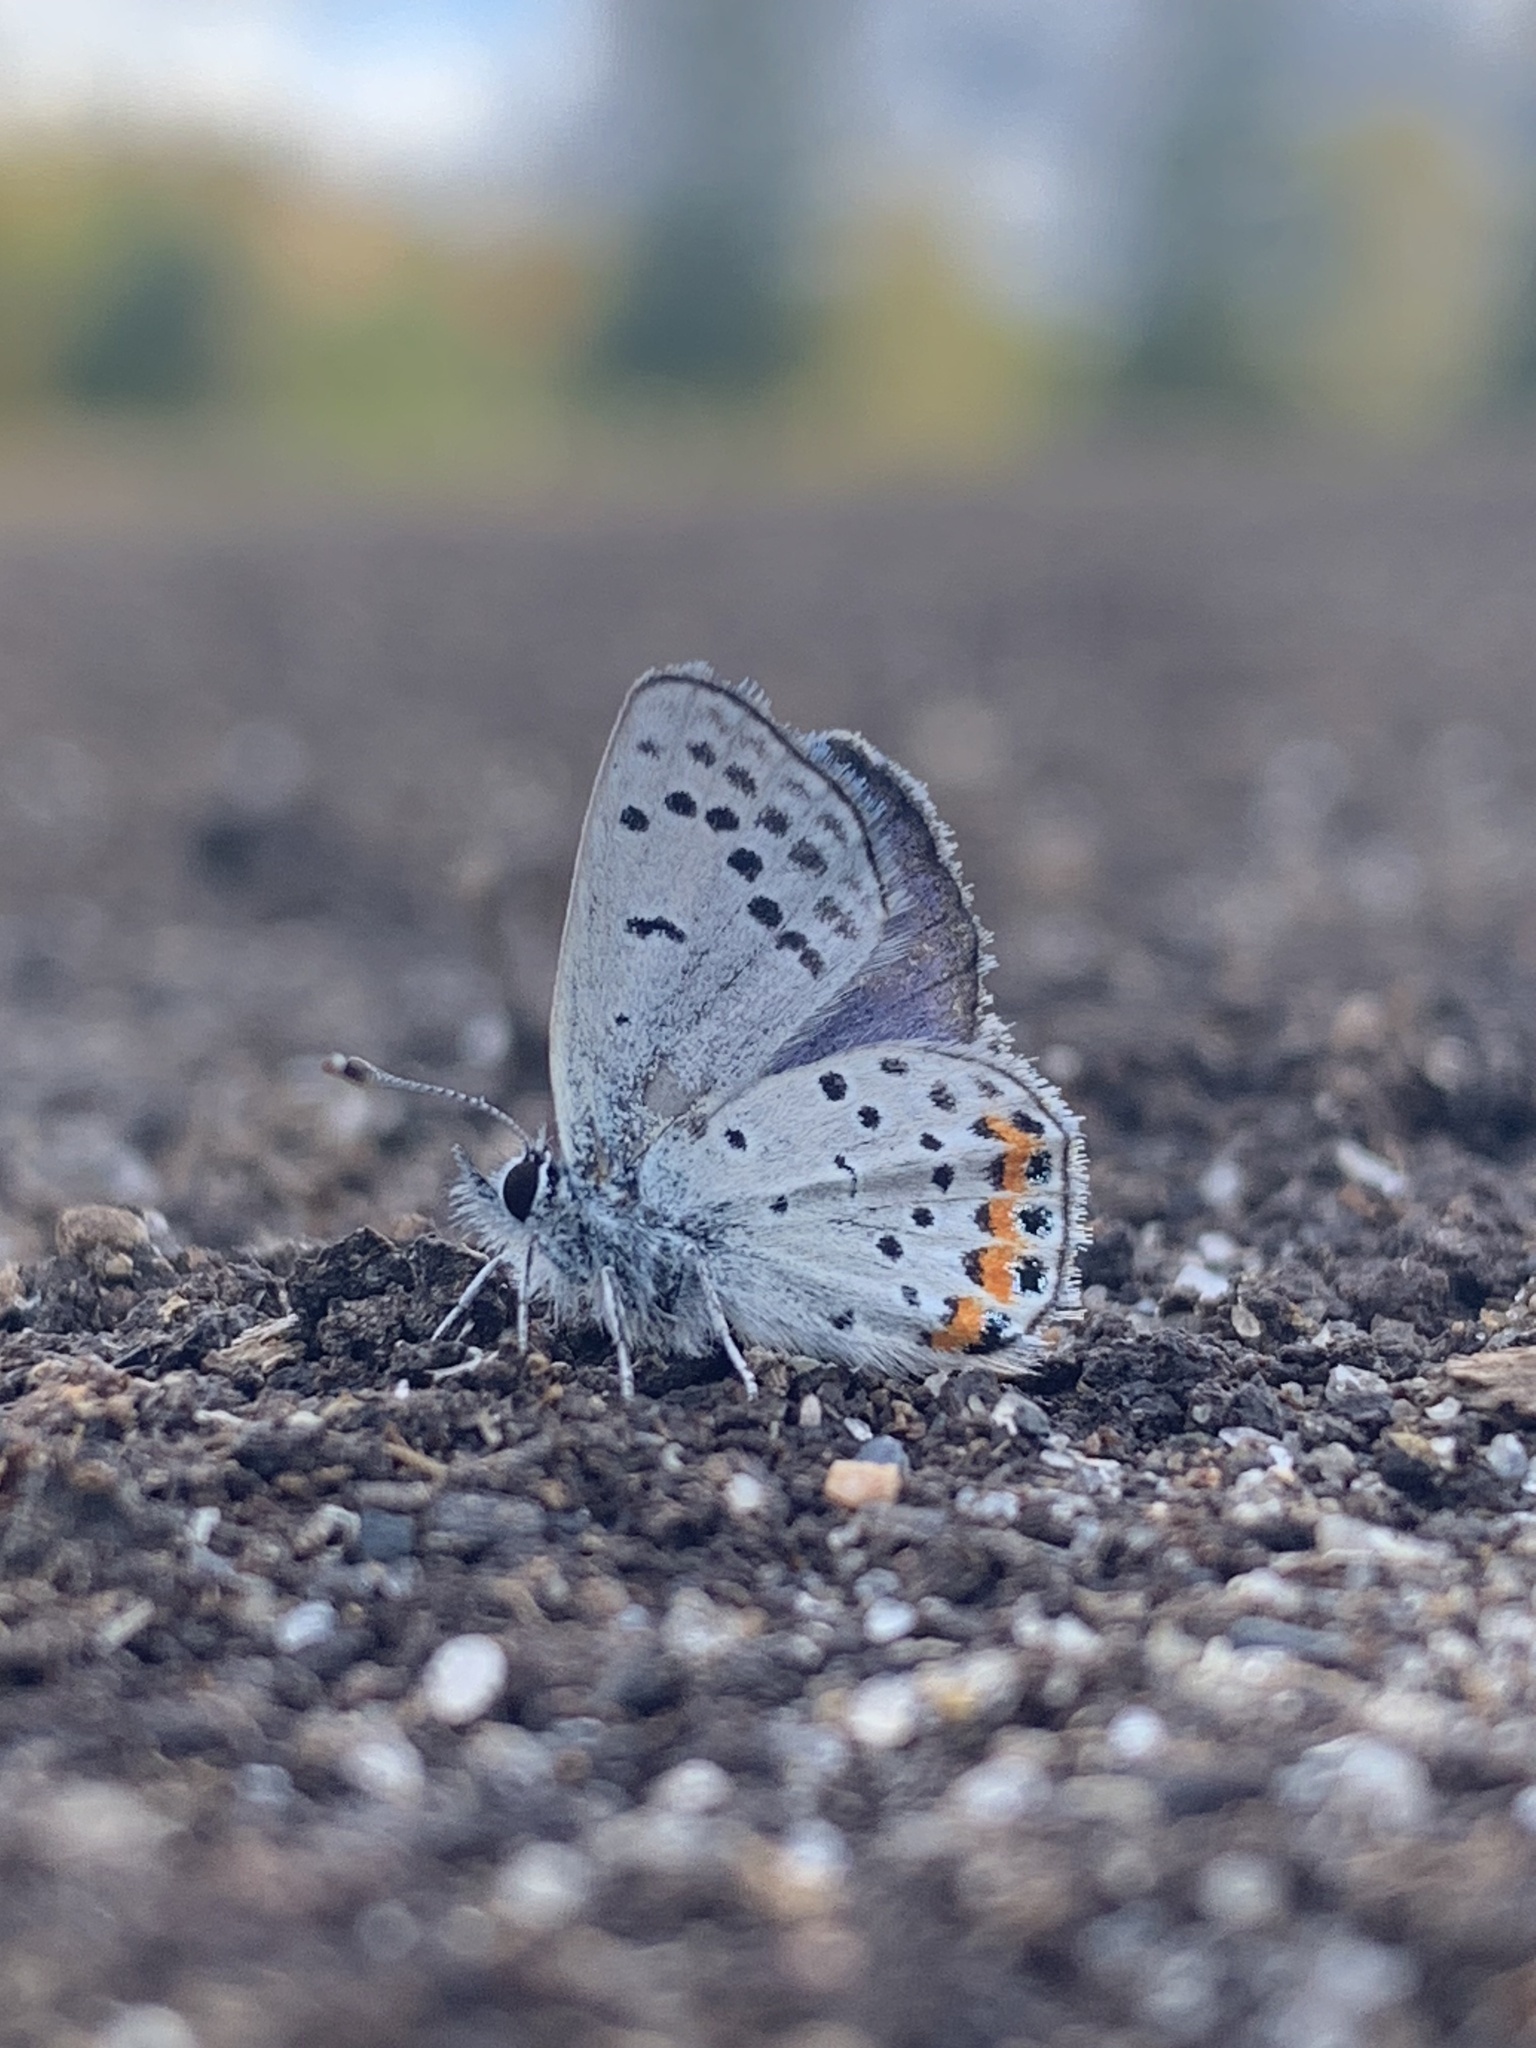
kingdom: Animalia
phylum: Arthropoda
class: Insecta
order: Lepidoptera
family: Lycaenidae
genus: Icaricia
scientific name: Icaricia acmon
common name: Acmon blue
